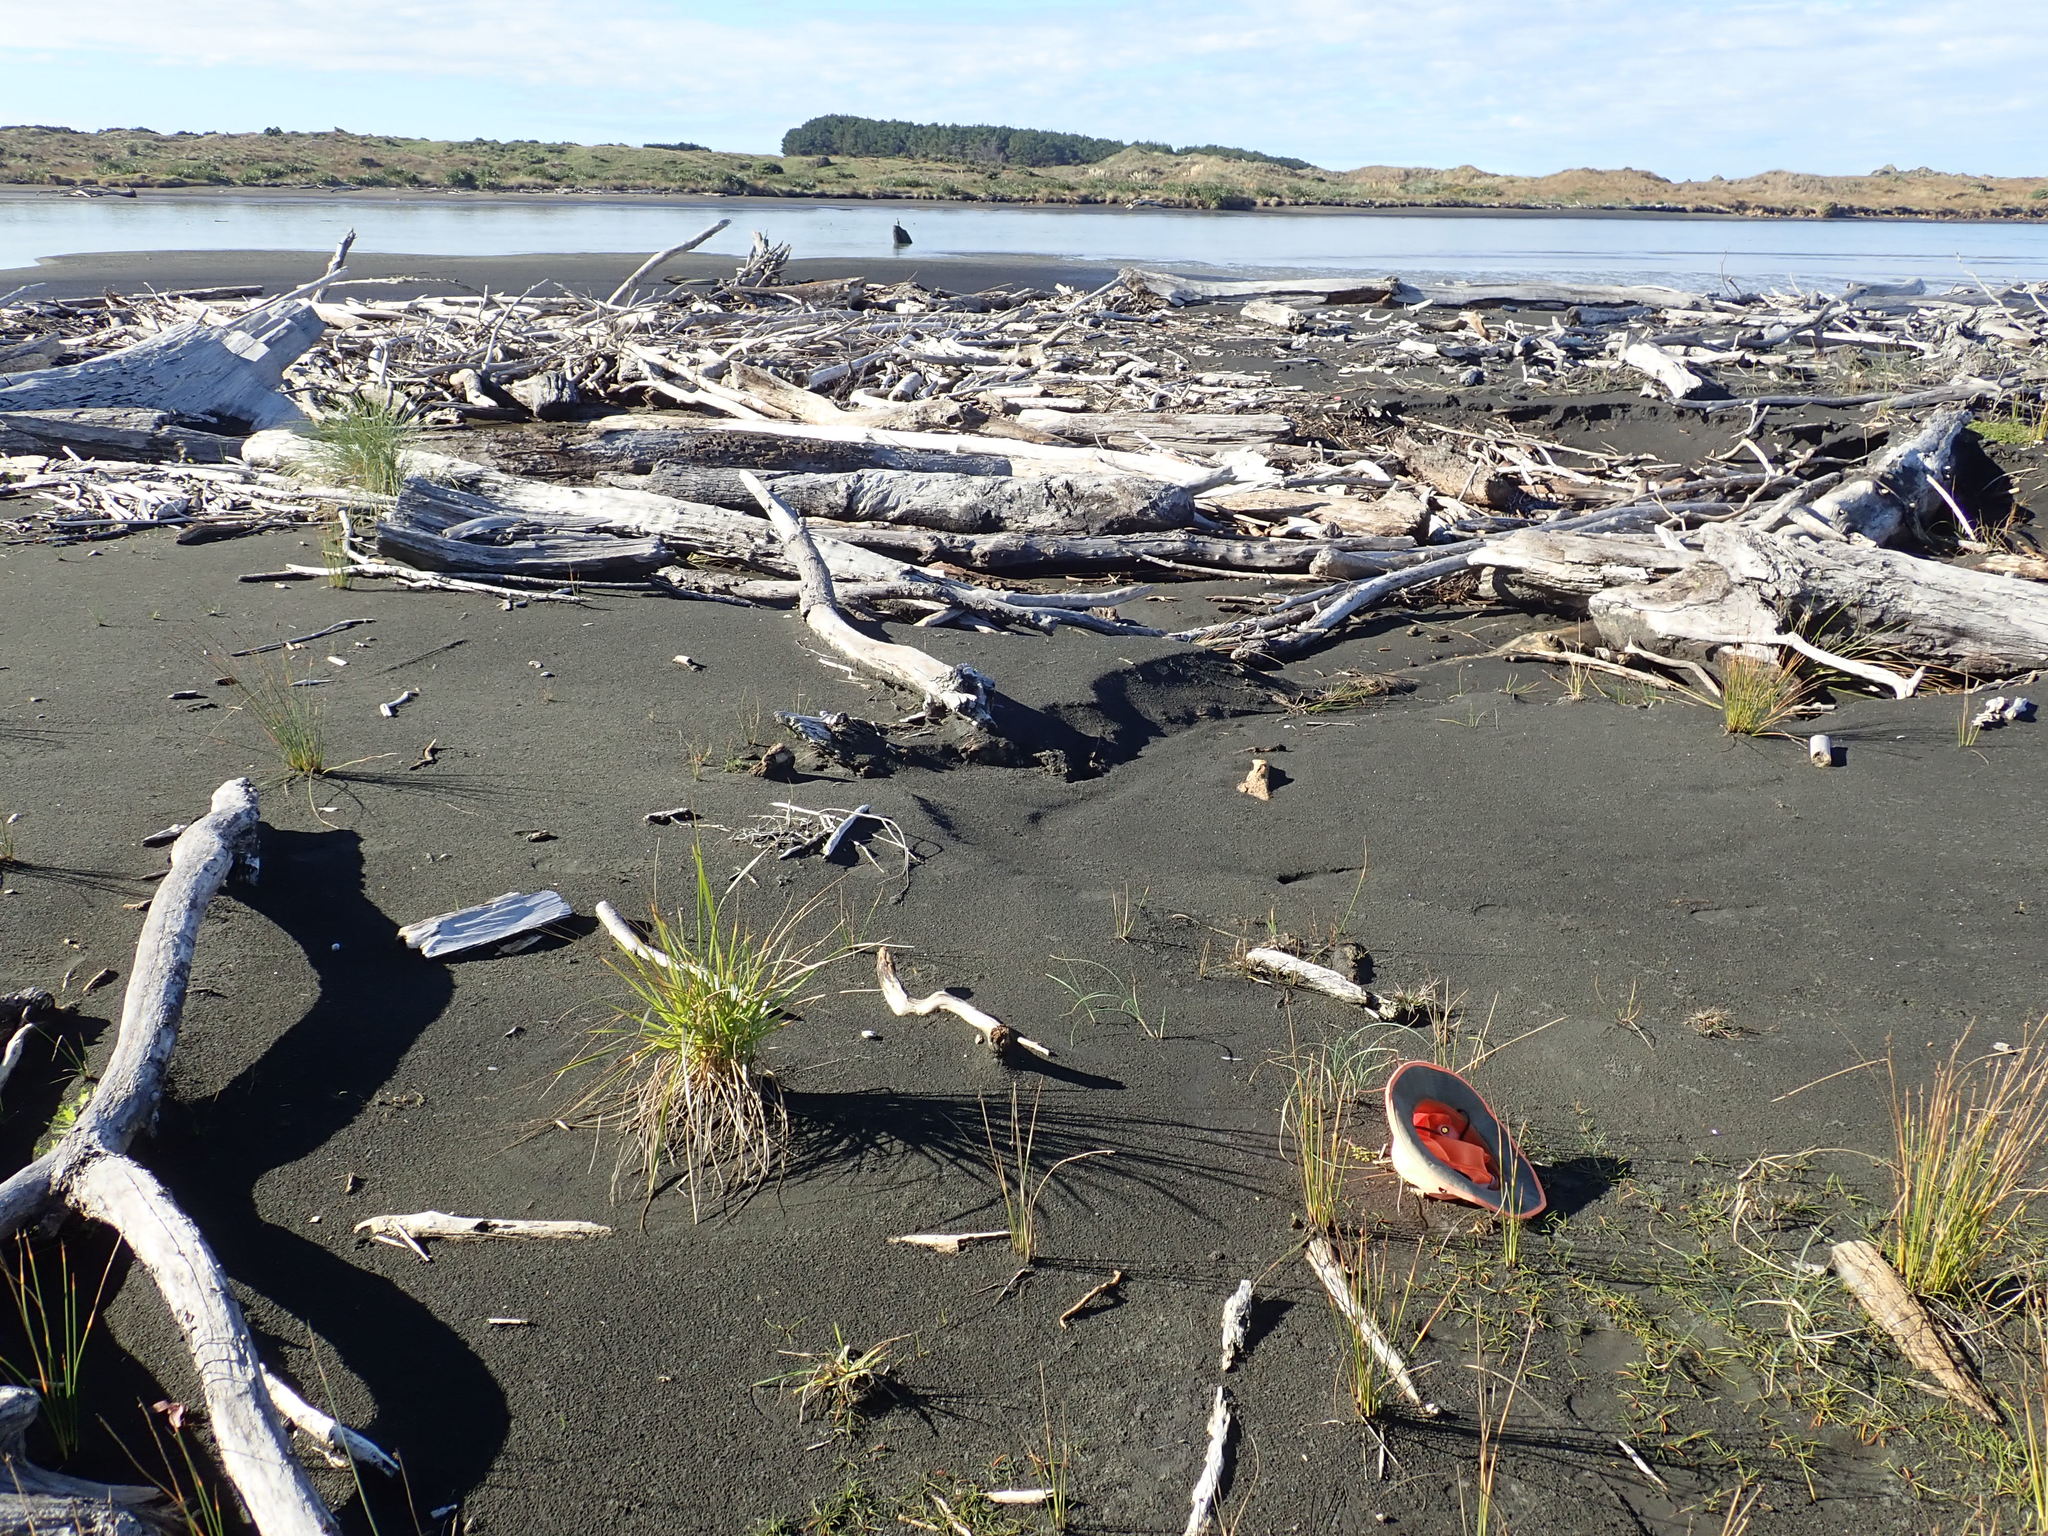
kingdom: Plantae
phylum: Tracheophyta
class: Magnoliopsida
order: Ranunculales
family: Ranunculaceae
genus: Ranunculus
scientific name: Ranunculus acaulis
